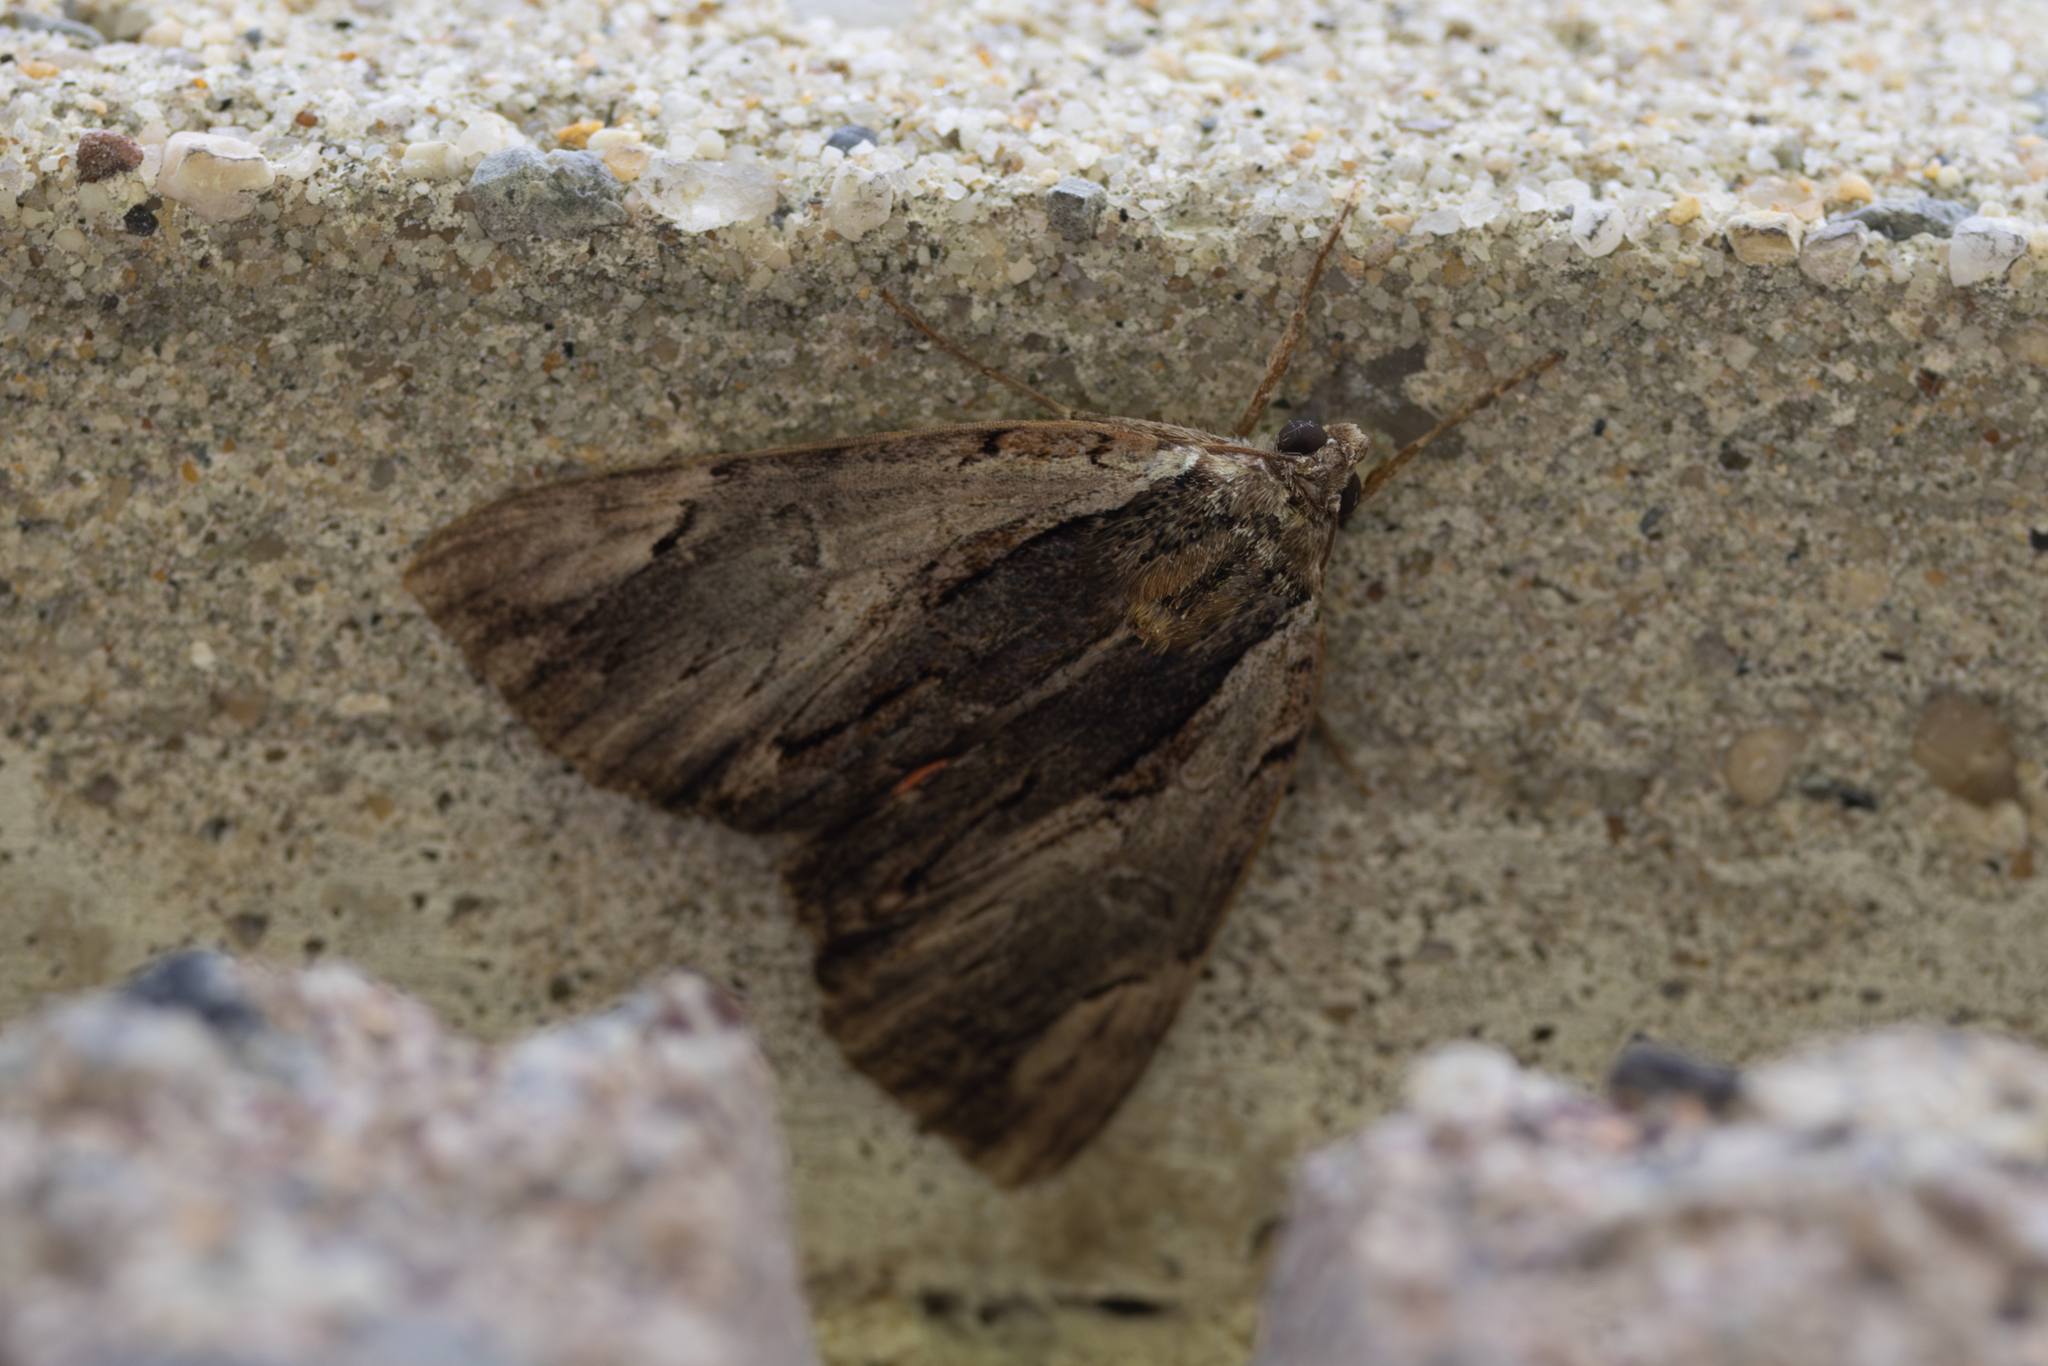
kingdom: Animalia
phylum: Arthropoda
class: Insecta
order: Lepidoptera
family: Erebidae
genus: Catocala
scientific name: Catocala ultronia
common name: Ultronia underwing
